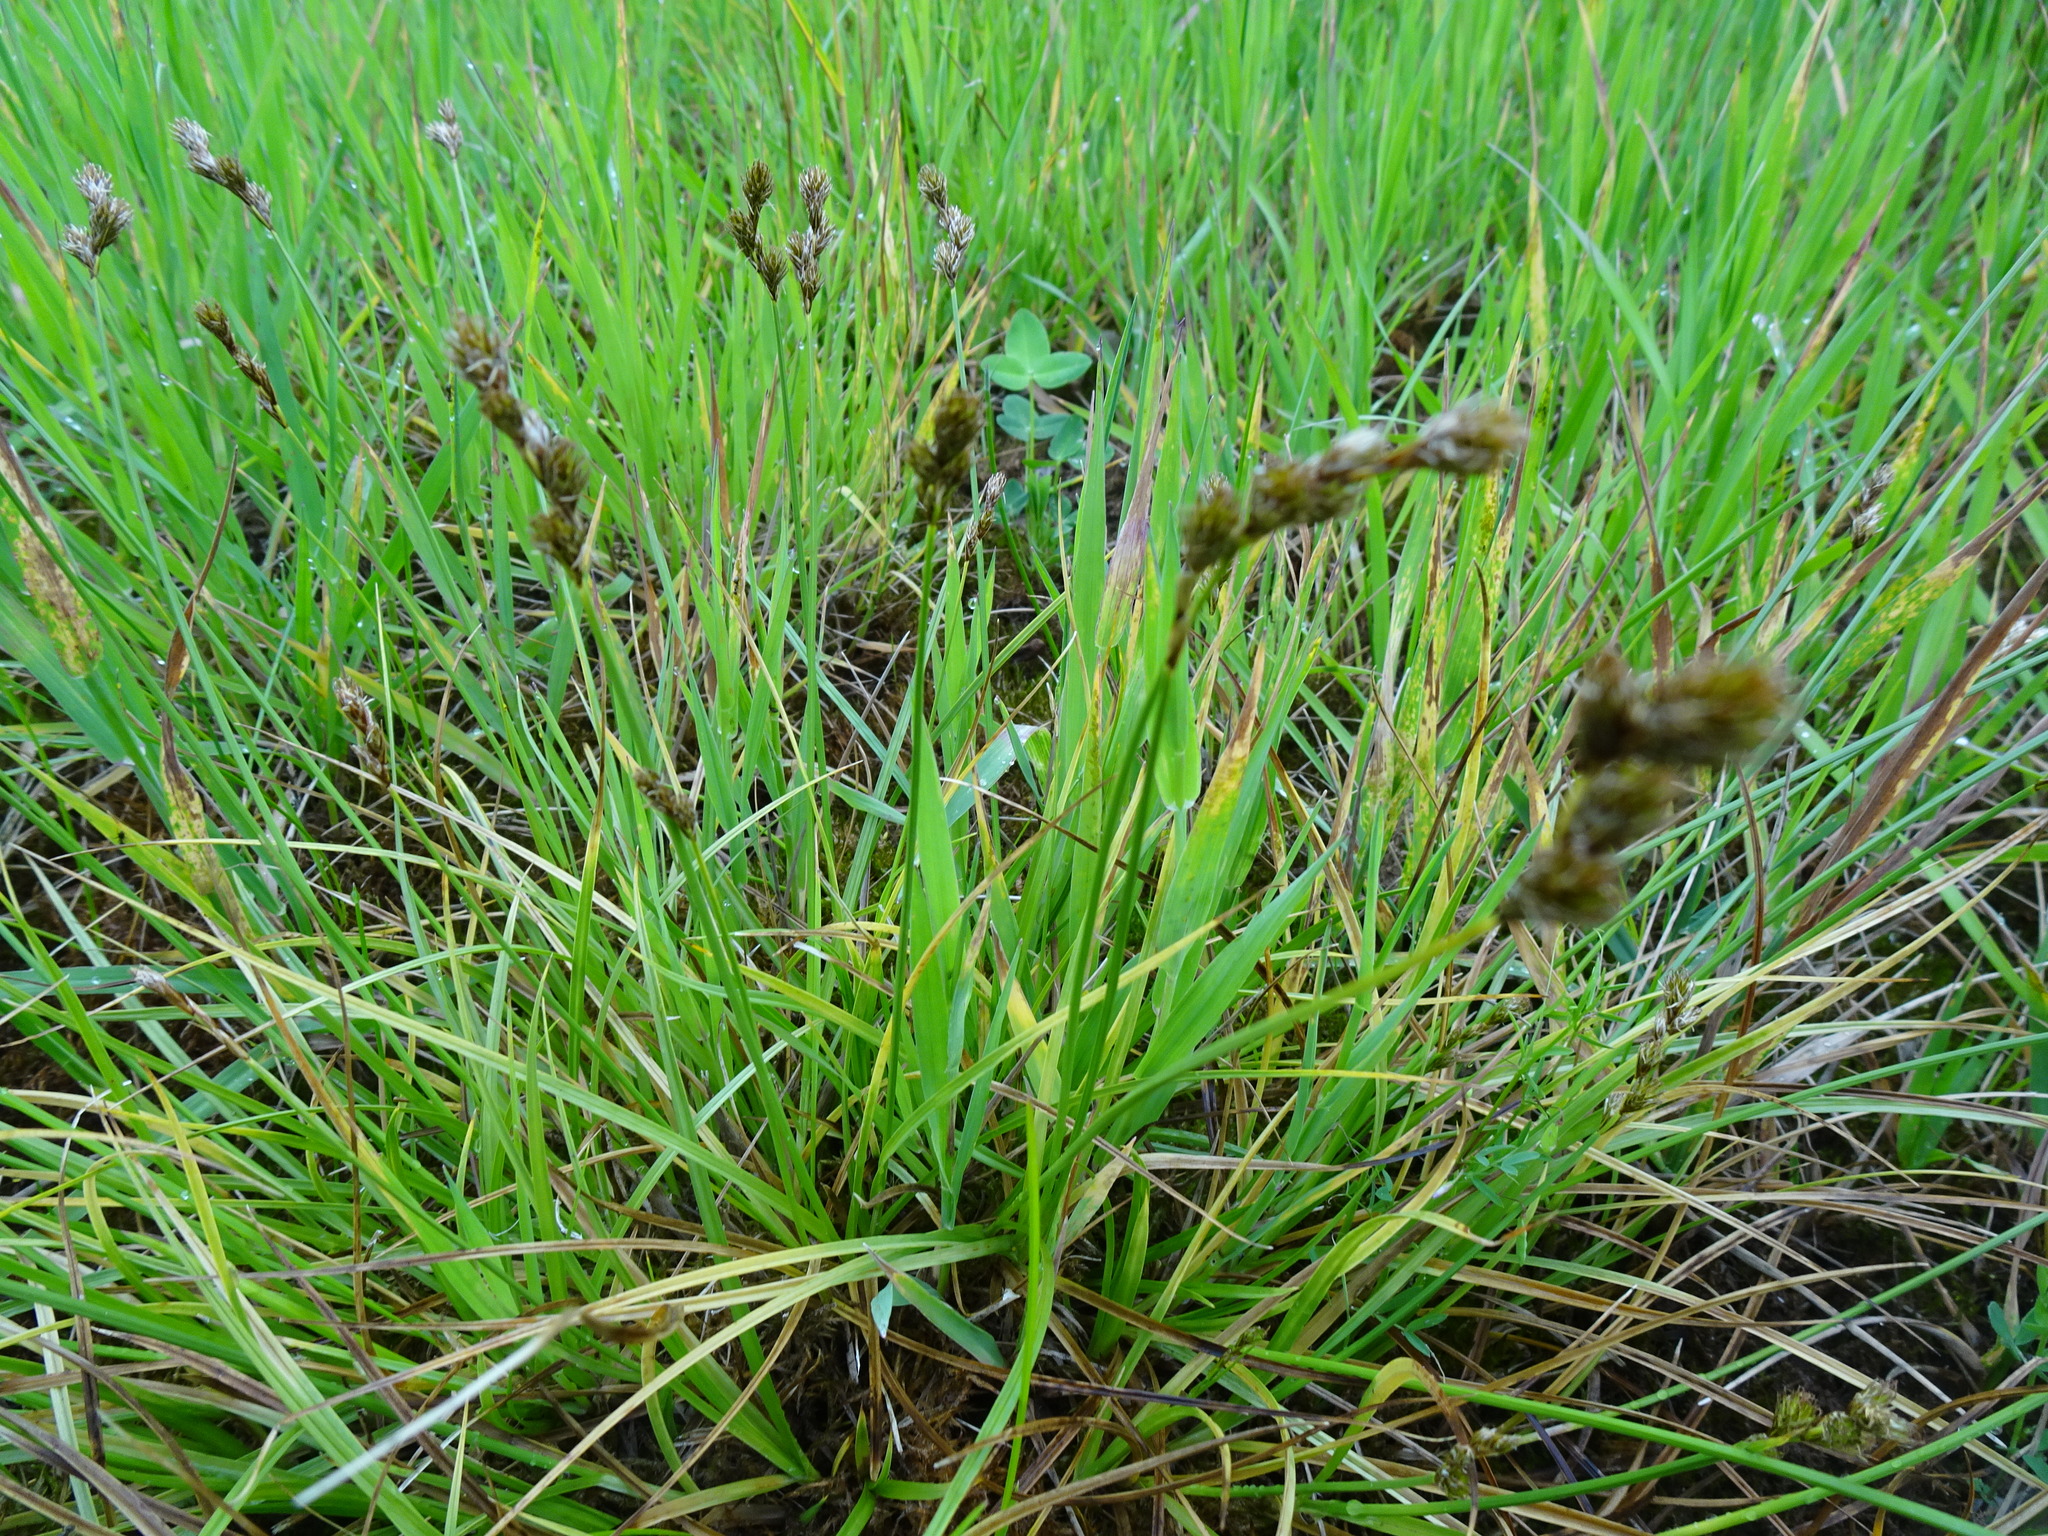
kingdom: Plantae
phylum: Tracheophyta
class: Liliopsida
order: Poales
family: Cyperaceae
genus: Carex
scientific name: Carex leporina
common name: Oval sedge
